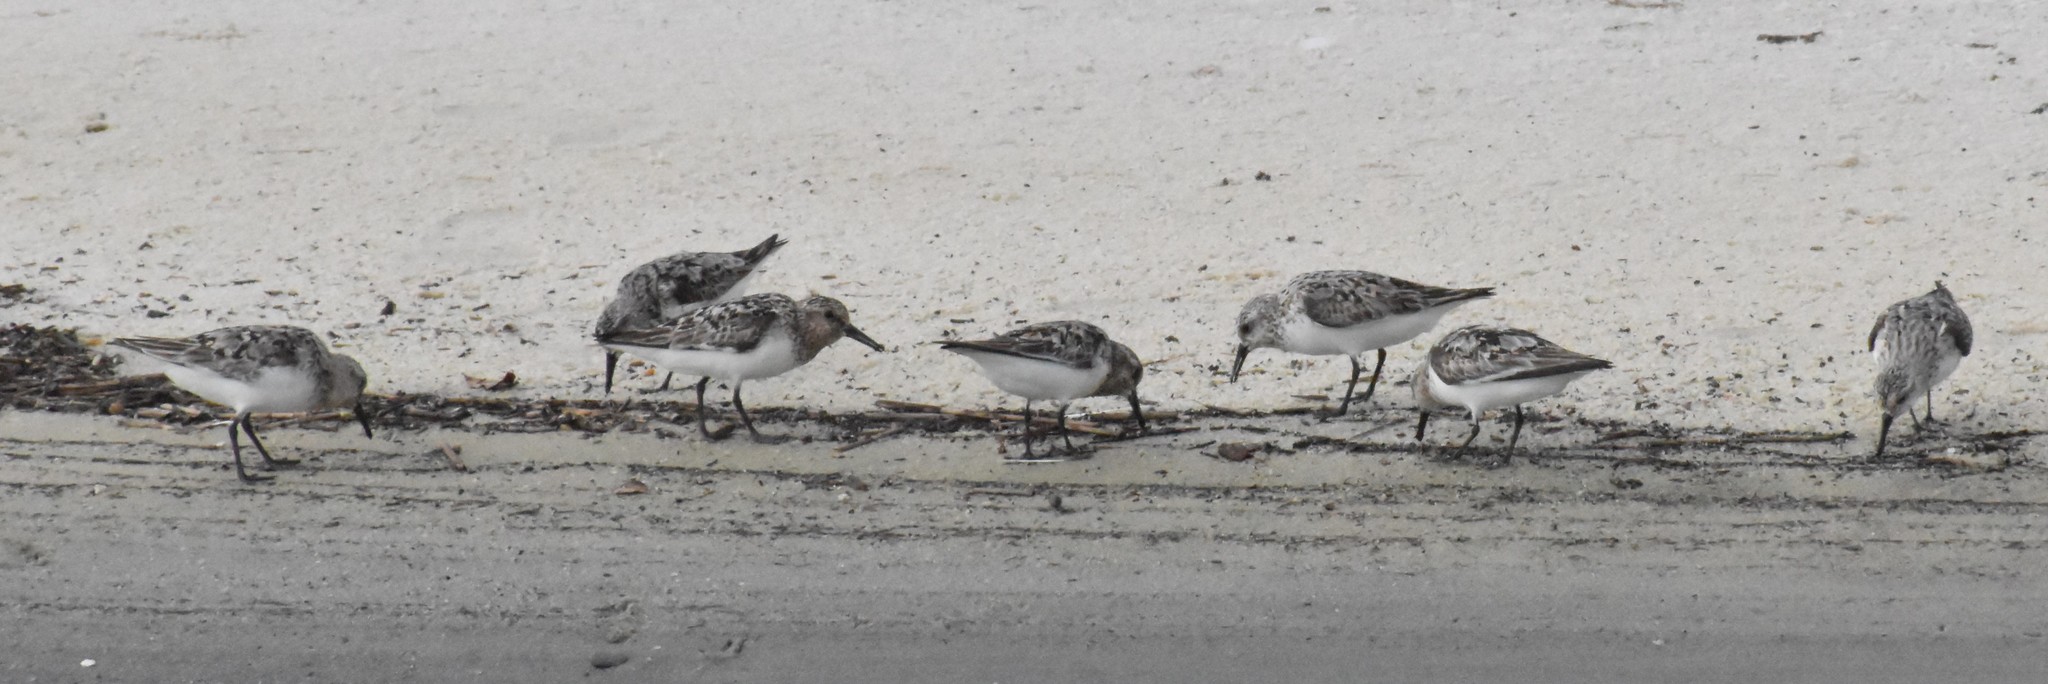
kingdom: Animalia
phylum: Chordata
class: Aves
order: Charadriiformes
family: Scolopacidae
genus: Calidris
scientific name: Calidris alba
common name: Sanderling
